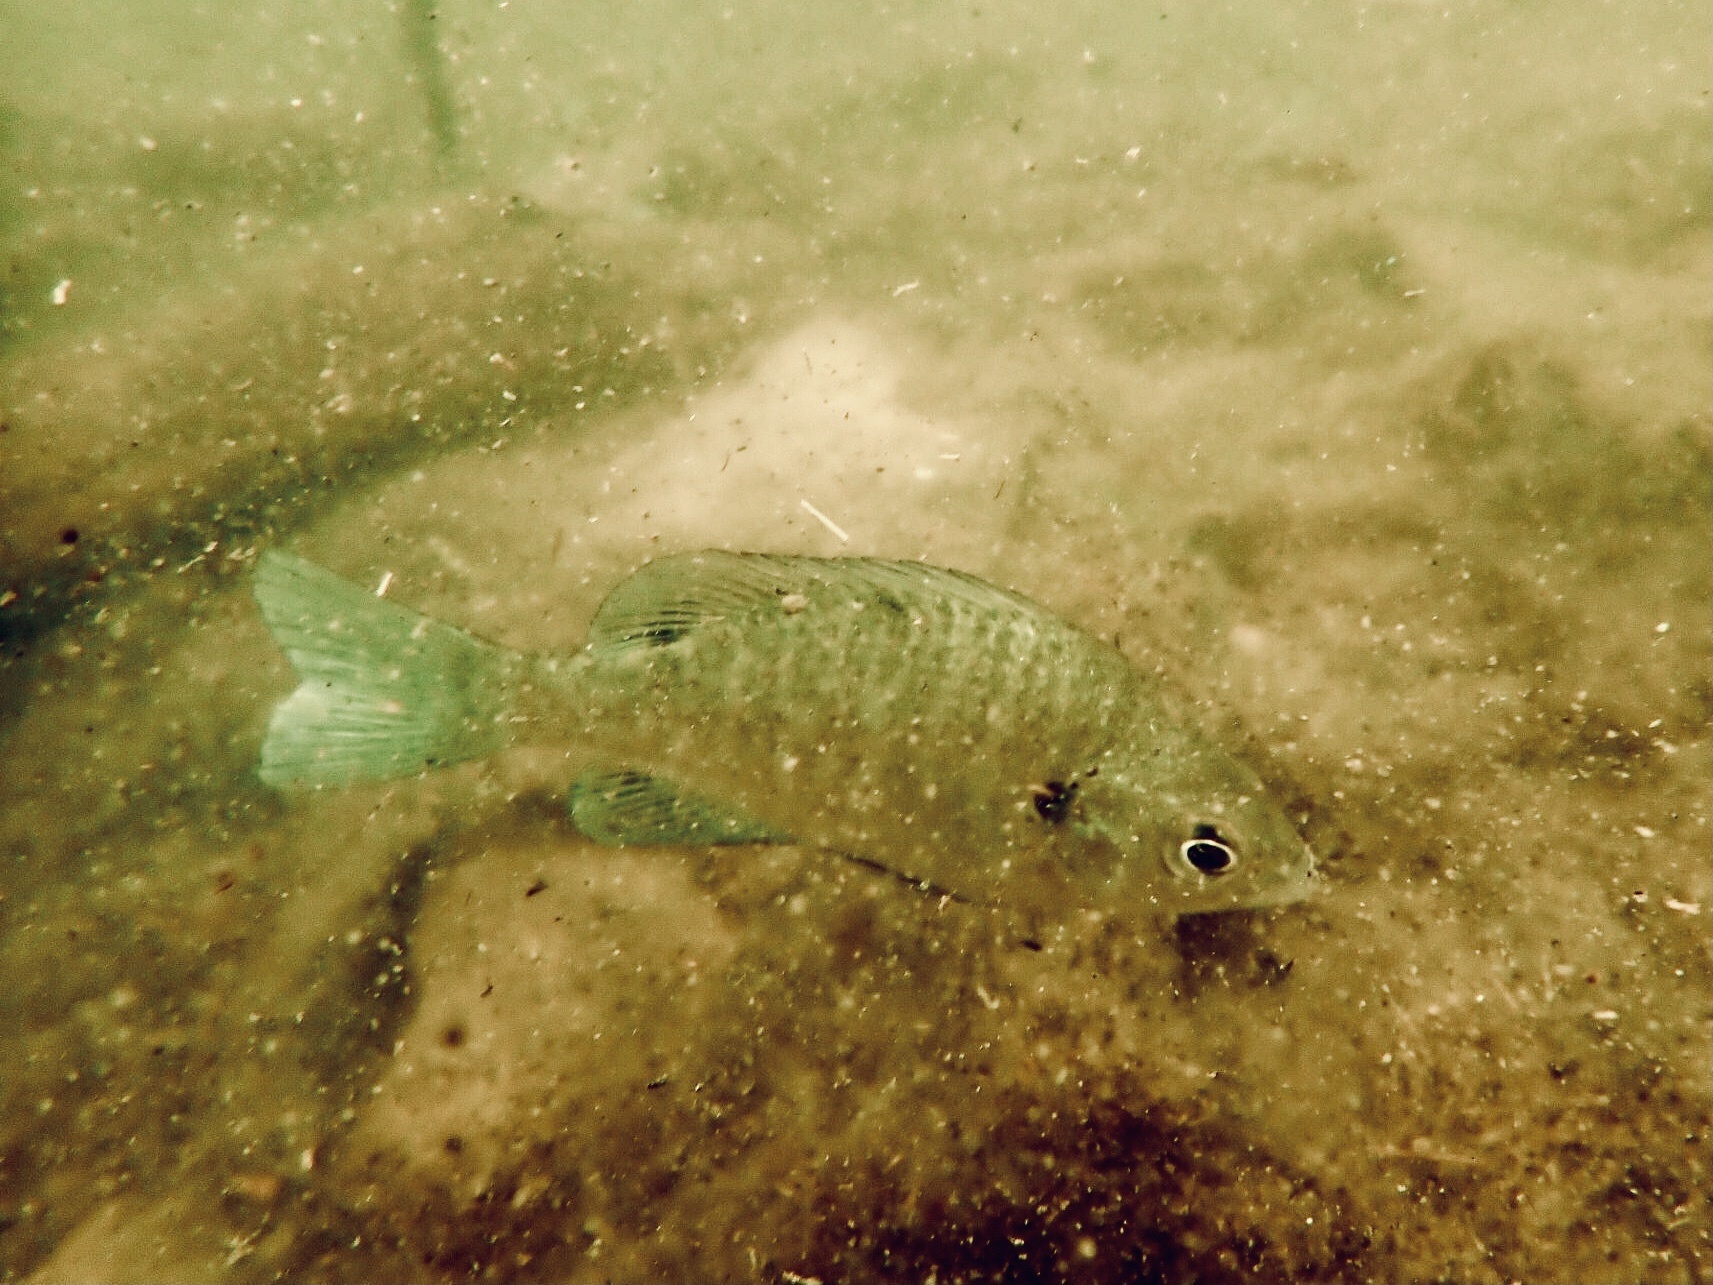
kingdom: Animalia
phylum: Chordata
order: Perciformes
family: Centrarchidae
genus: Lepomis
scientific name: Lepomis macrochirus
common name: Bluegill
